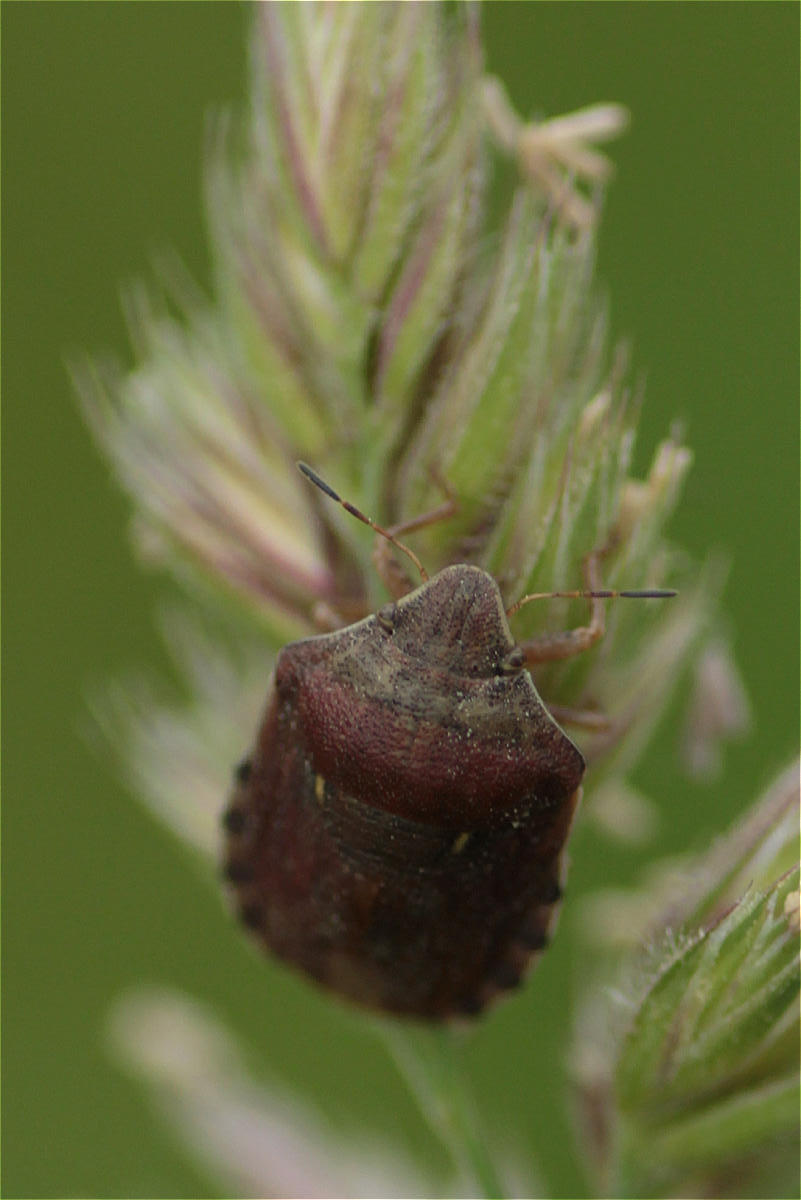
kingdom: Animalia
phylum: Arthropoda
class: Insecta
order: Hemiptera
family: Scutelleridae
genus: Eurygaster
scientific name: Eurygaster maura
